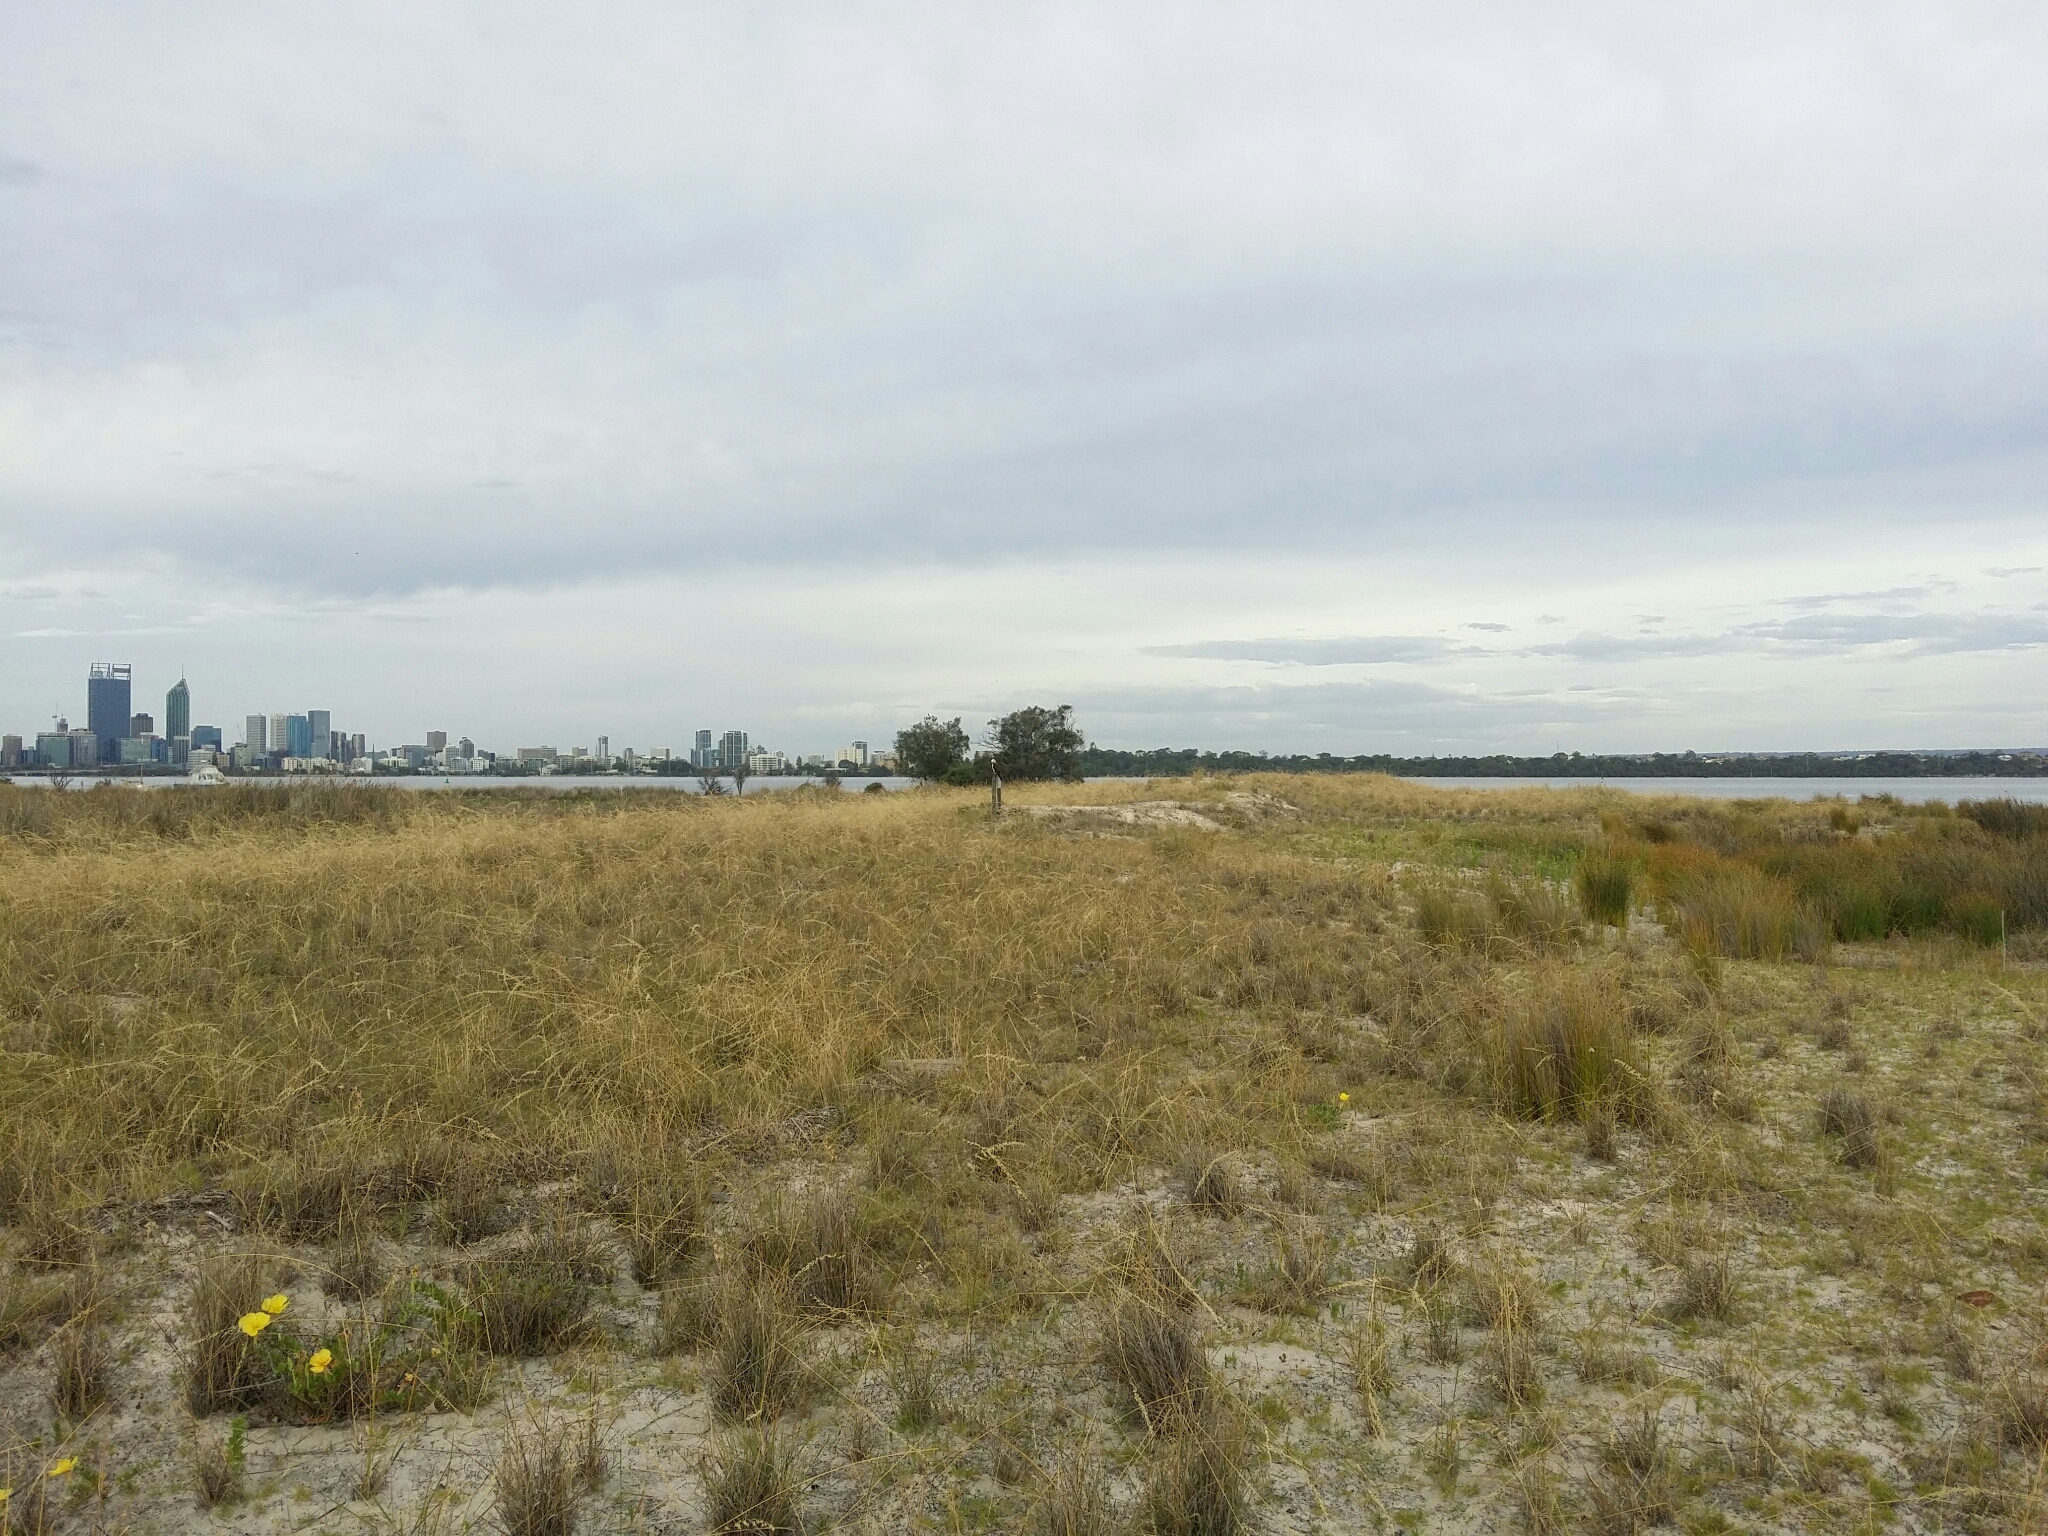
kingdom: Animalia
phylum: Chordata
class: Aves
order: Accipitriformes
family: Pandionidae
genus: Pandion
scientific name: Pandion cristatus
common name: Eastern osprey
